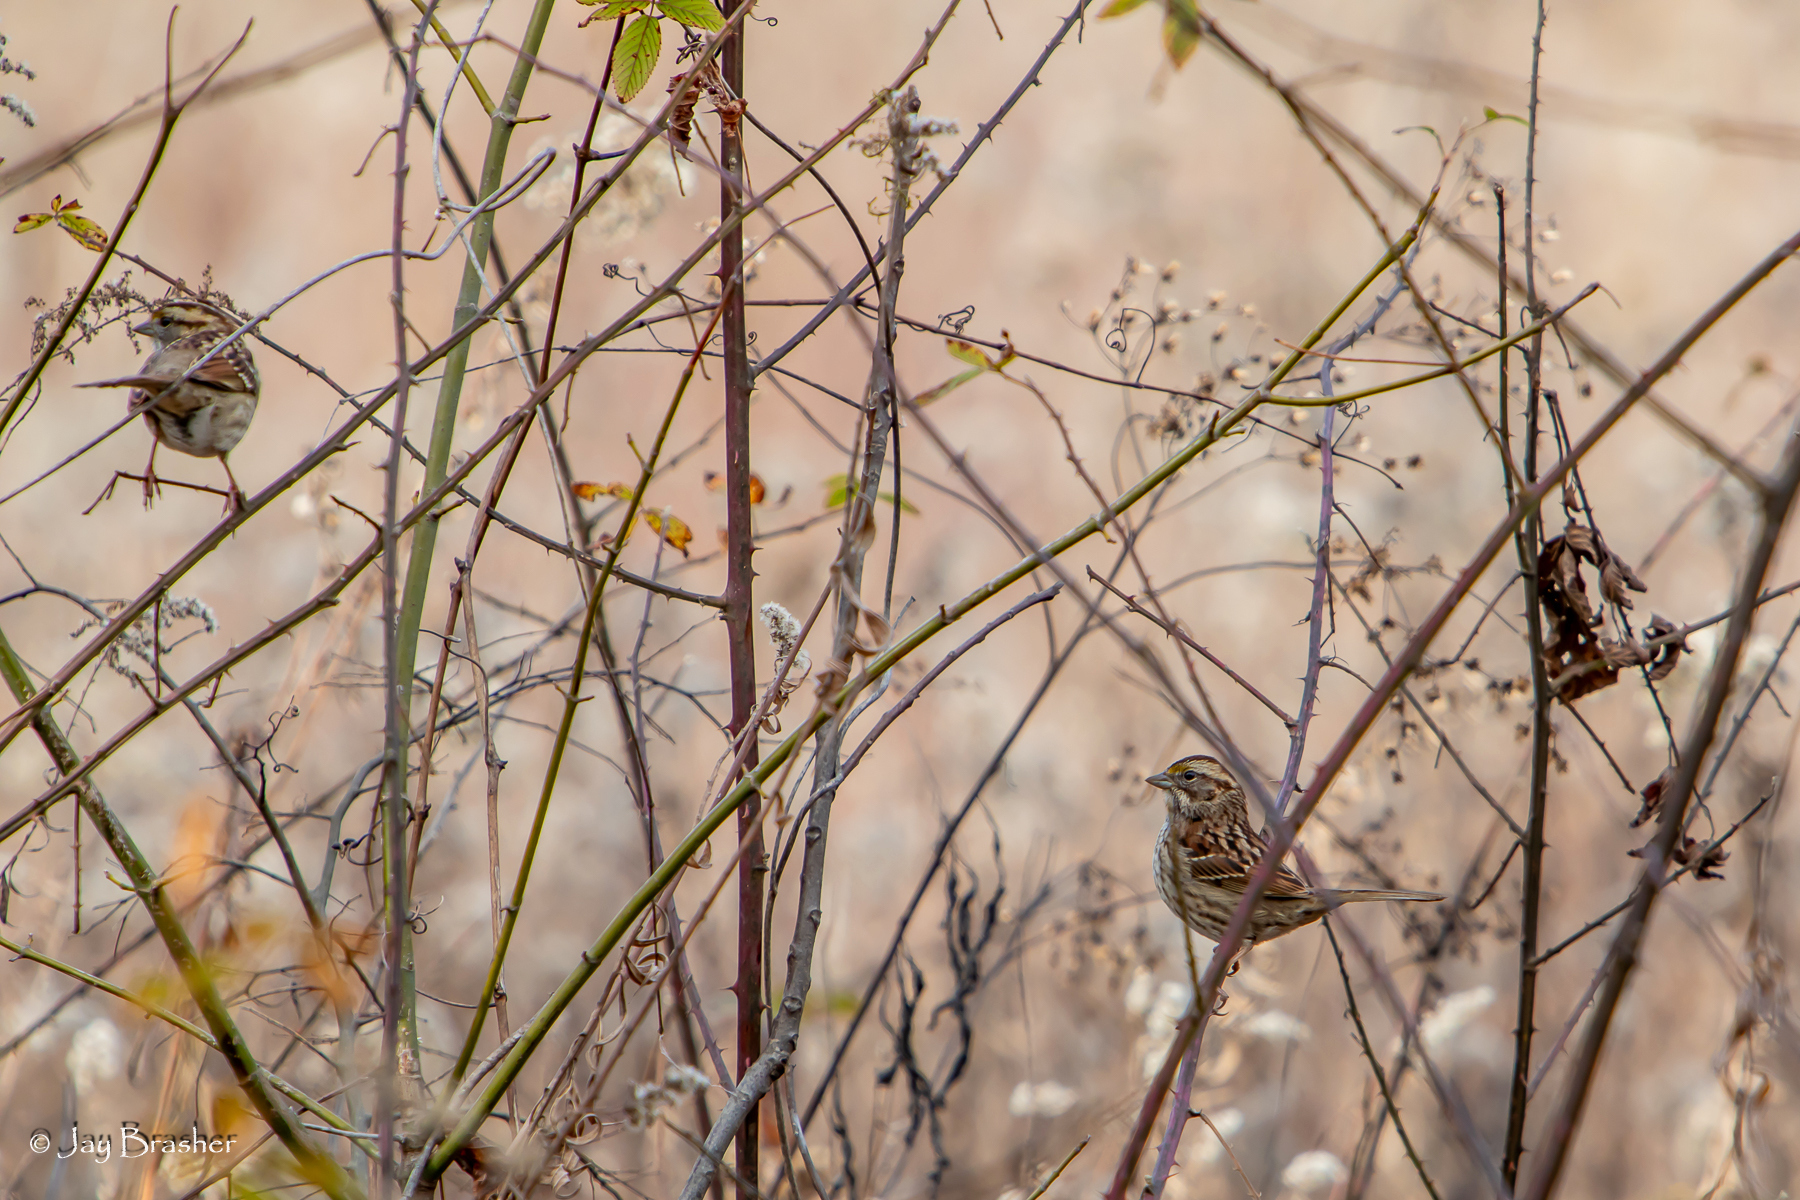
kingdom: Animalia
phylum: Chordata
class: Aves
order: Passeriformes
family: Passerellidae
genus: Zonotrichia
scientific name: Zonotrichia albicollis
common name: White-throated sparrow
